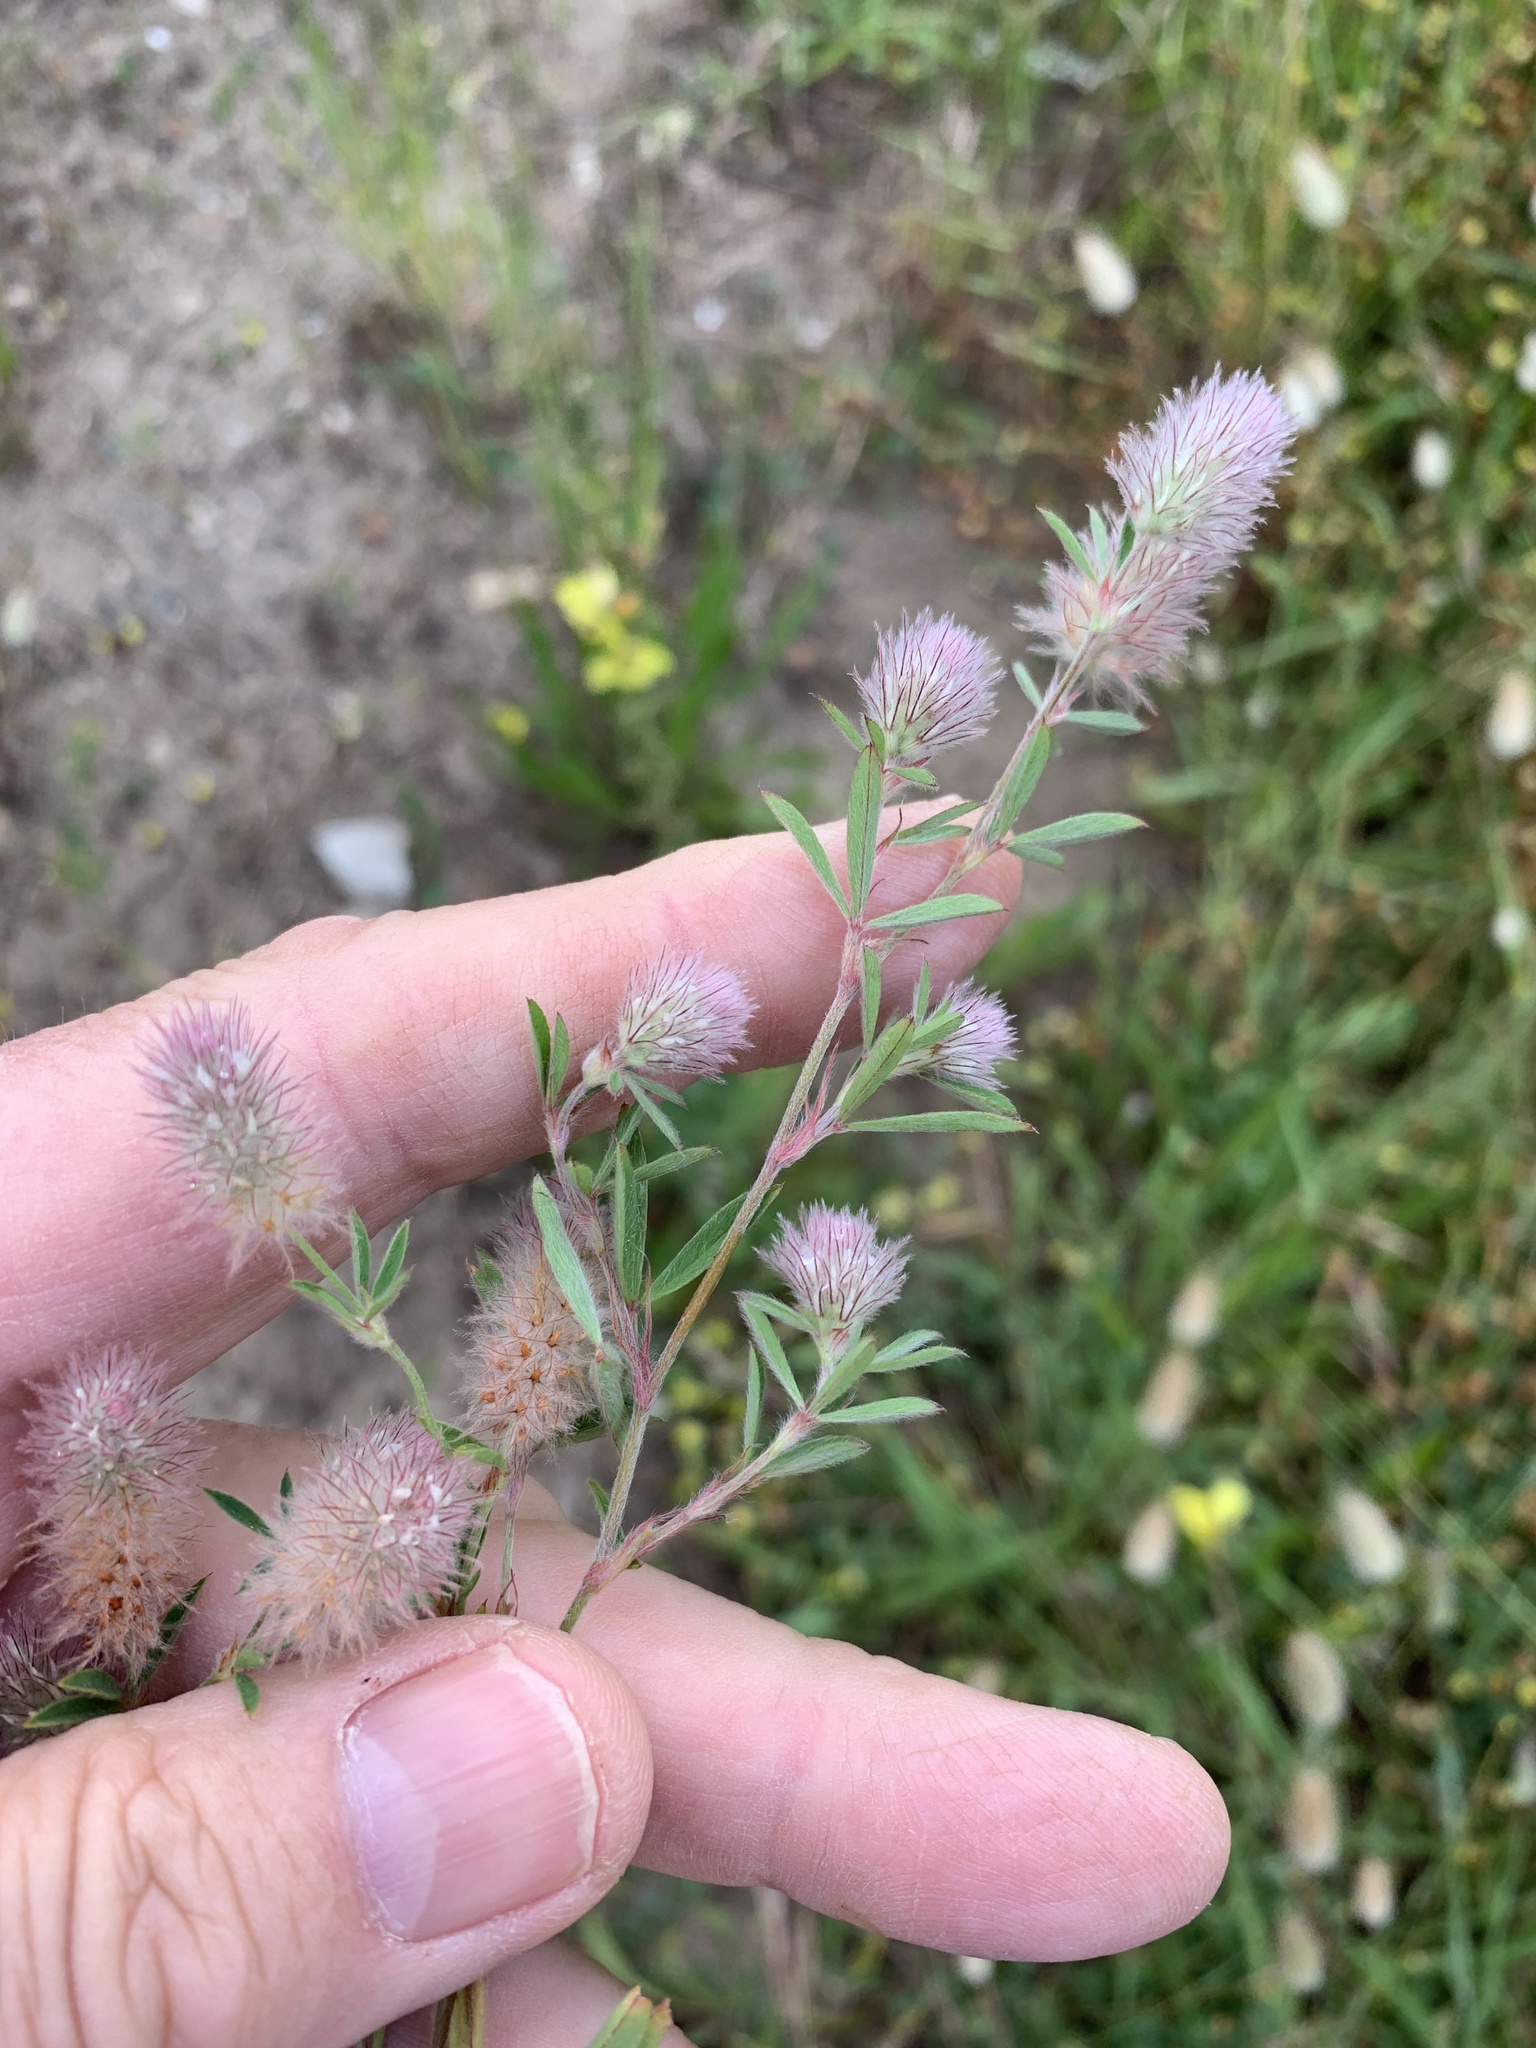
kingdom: Plantae
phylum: Tracheophyta
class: Magnoliopsida
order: Fabales
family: Fabaceae
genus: Trifolium
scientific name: Trifolium arvense
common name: Hare's-foot clover
